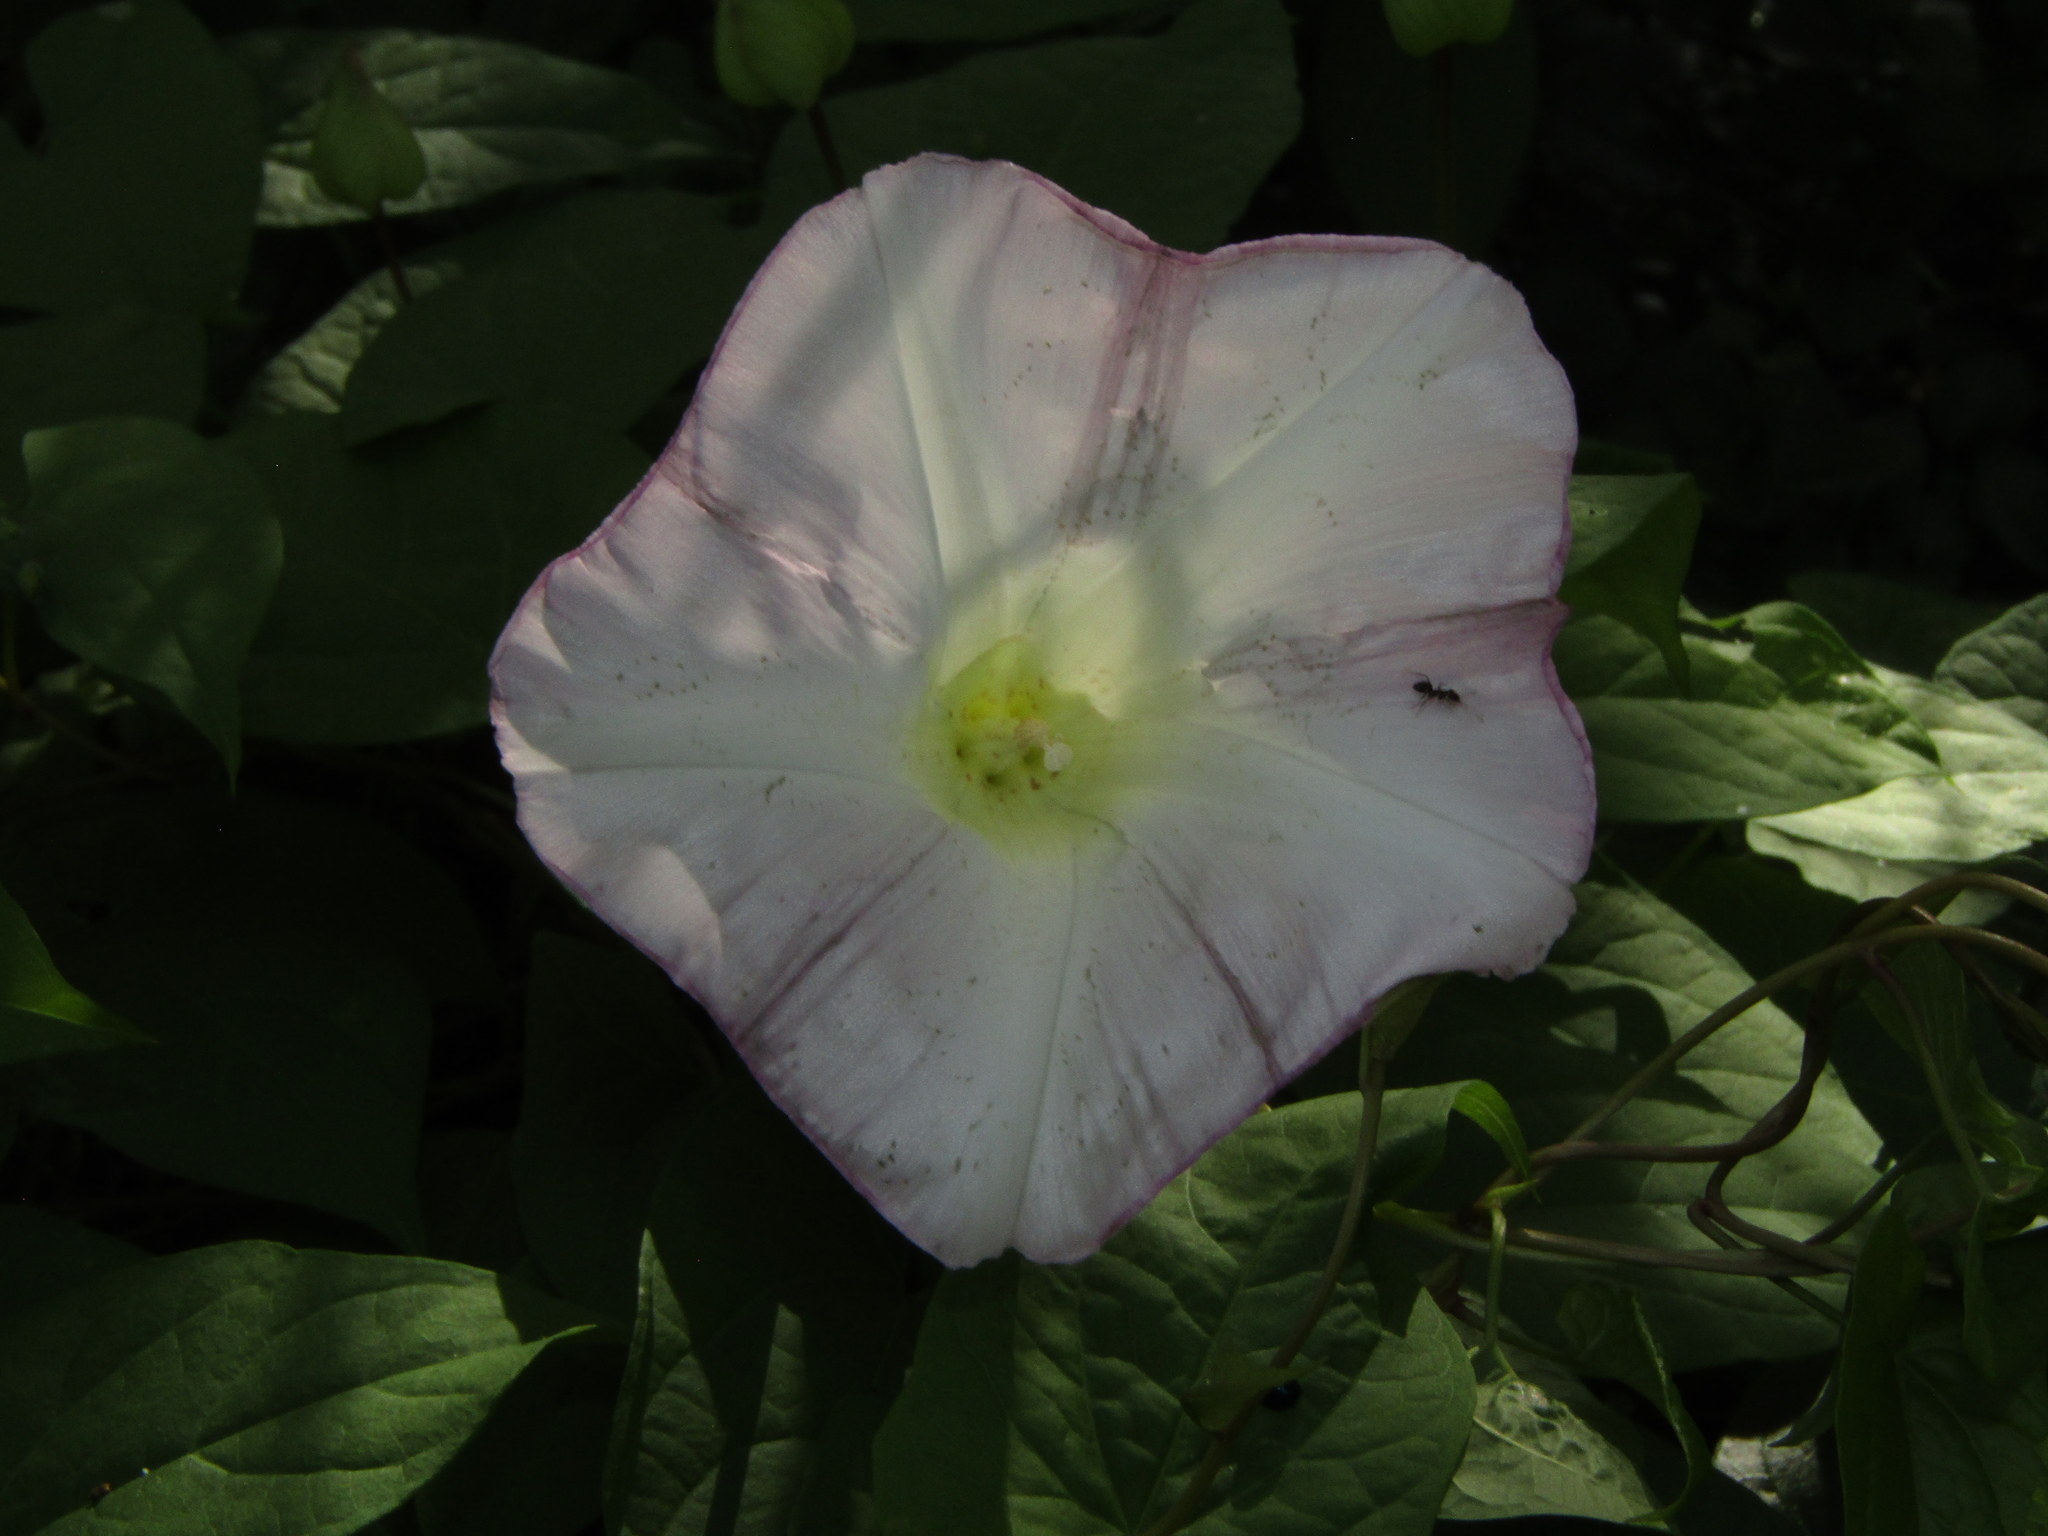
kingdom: Plantae
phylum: Tracheophyta
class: Magnoliopsida
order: Solanales
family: Convolvulaceae
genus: Calystegia
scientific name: Calystegia silvatica
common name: Large bindweed
